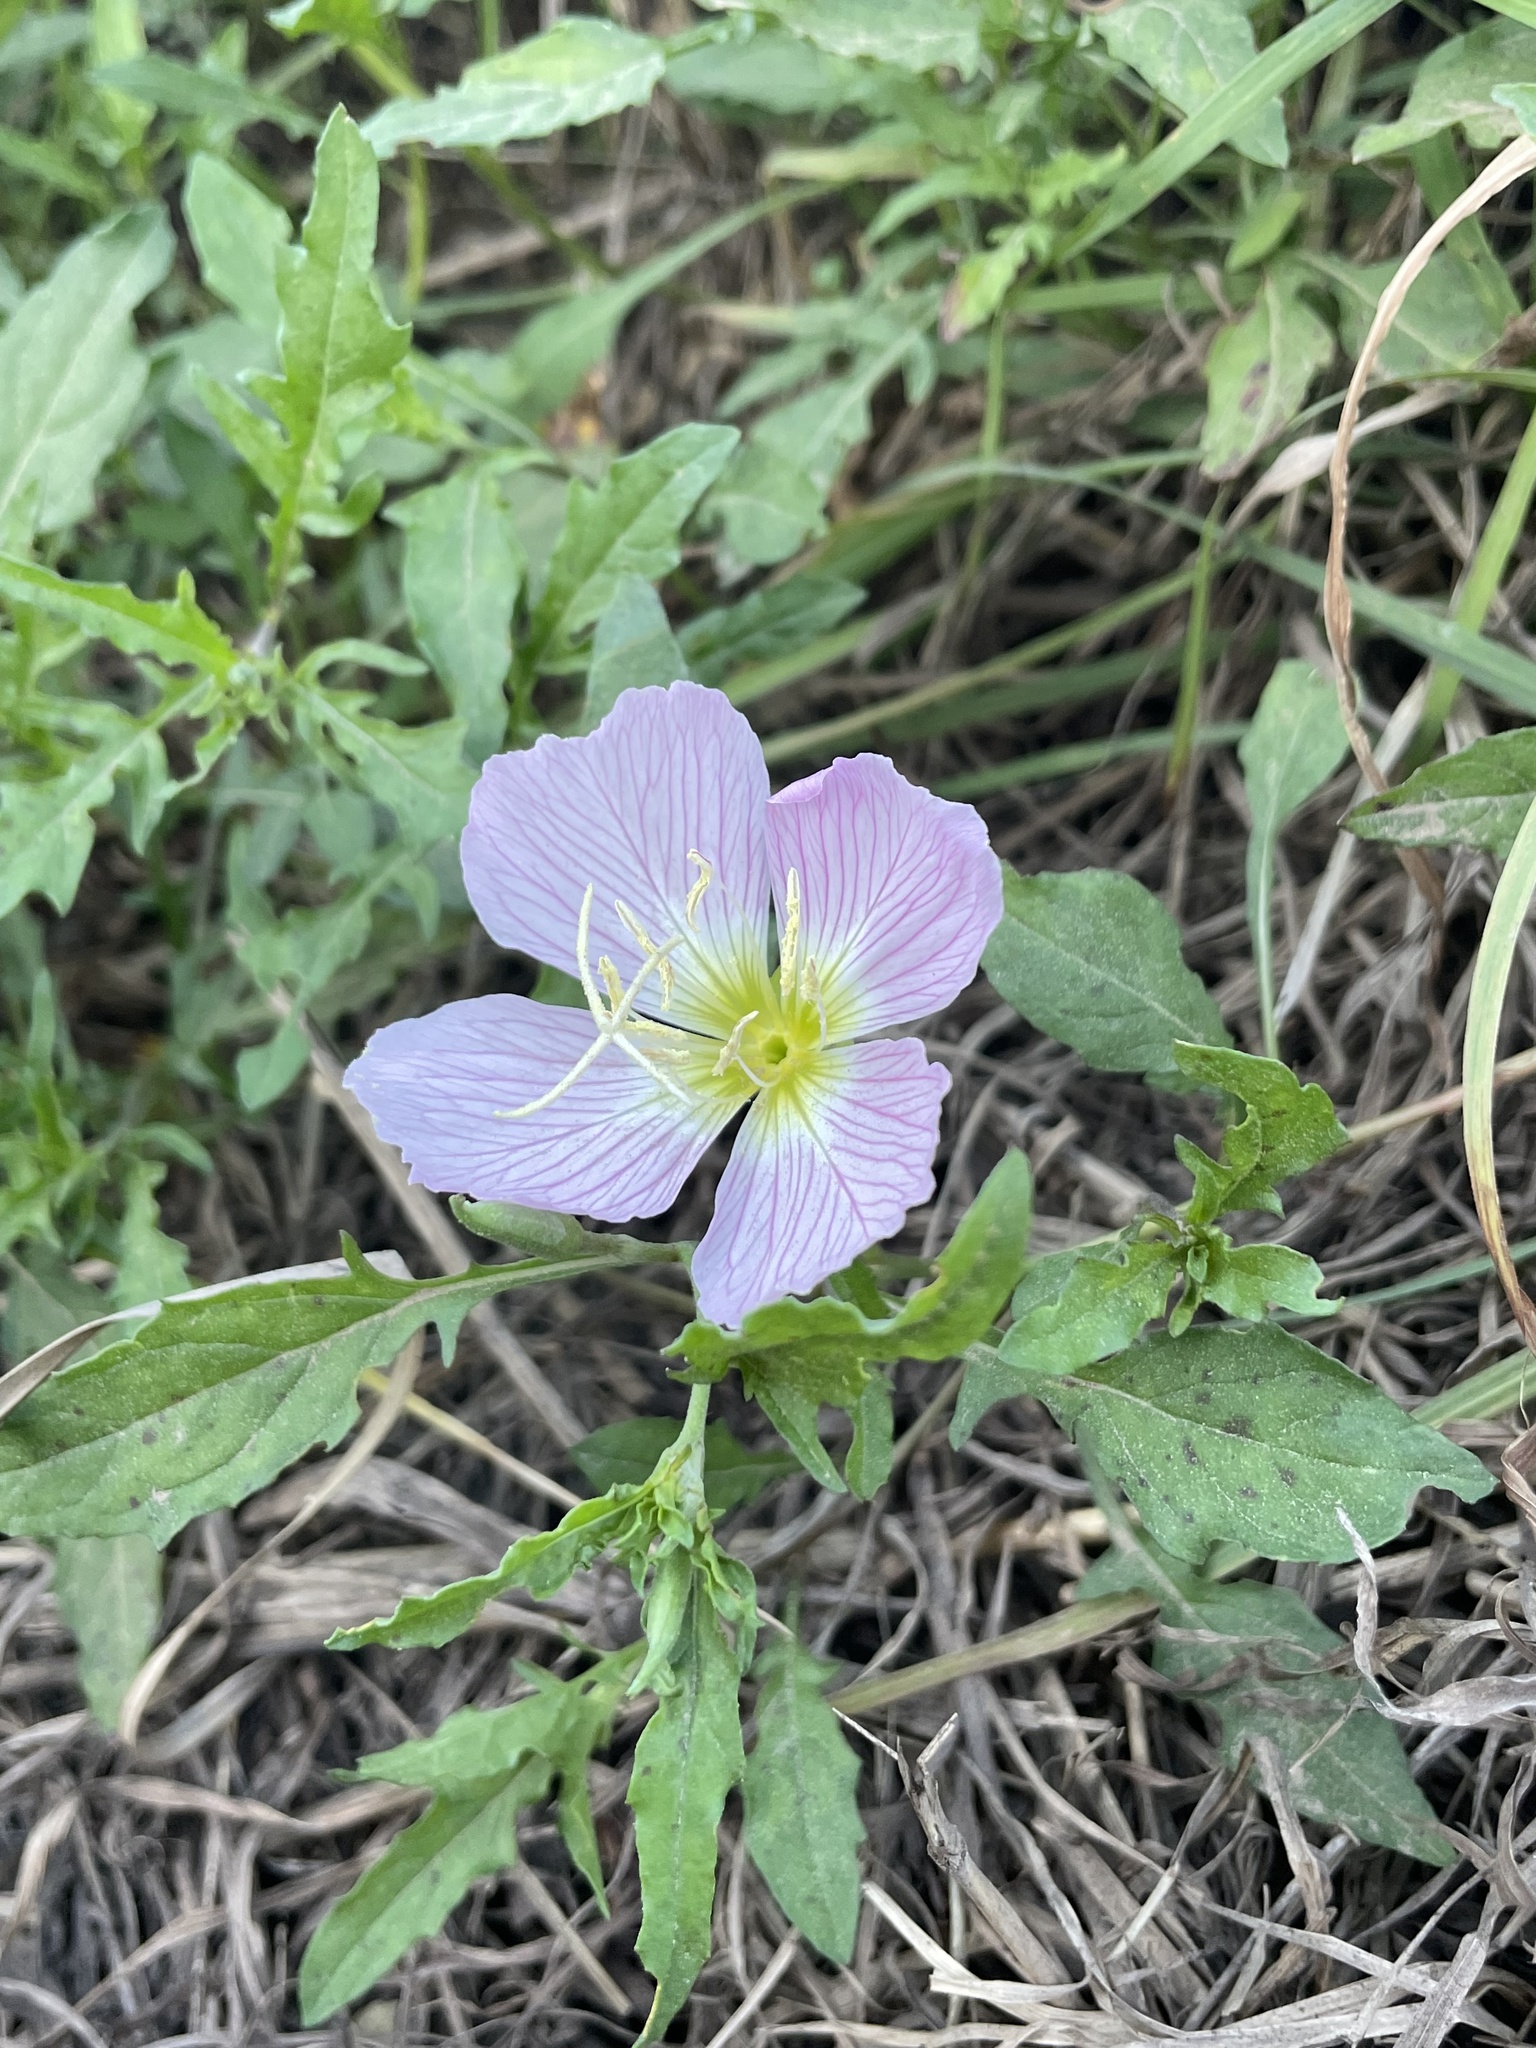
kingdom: Plantae
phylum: Tracheophyta
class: Magnoliopsida
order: Myrtales
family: Onagraceae
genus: Oenothera
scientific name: Oenothera speciosa
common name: White evening-primrose
